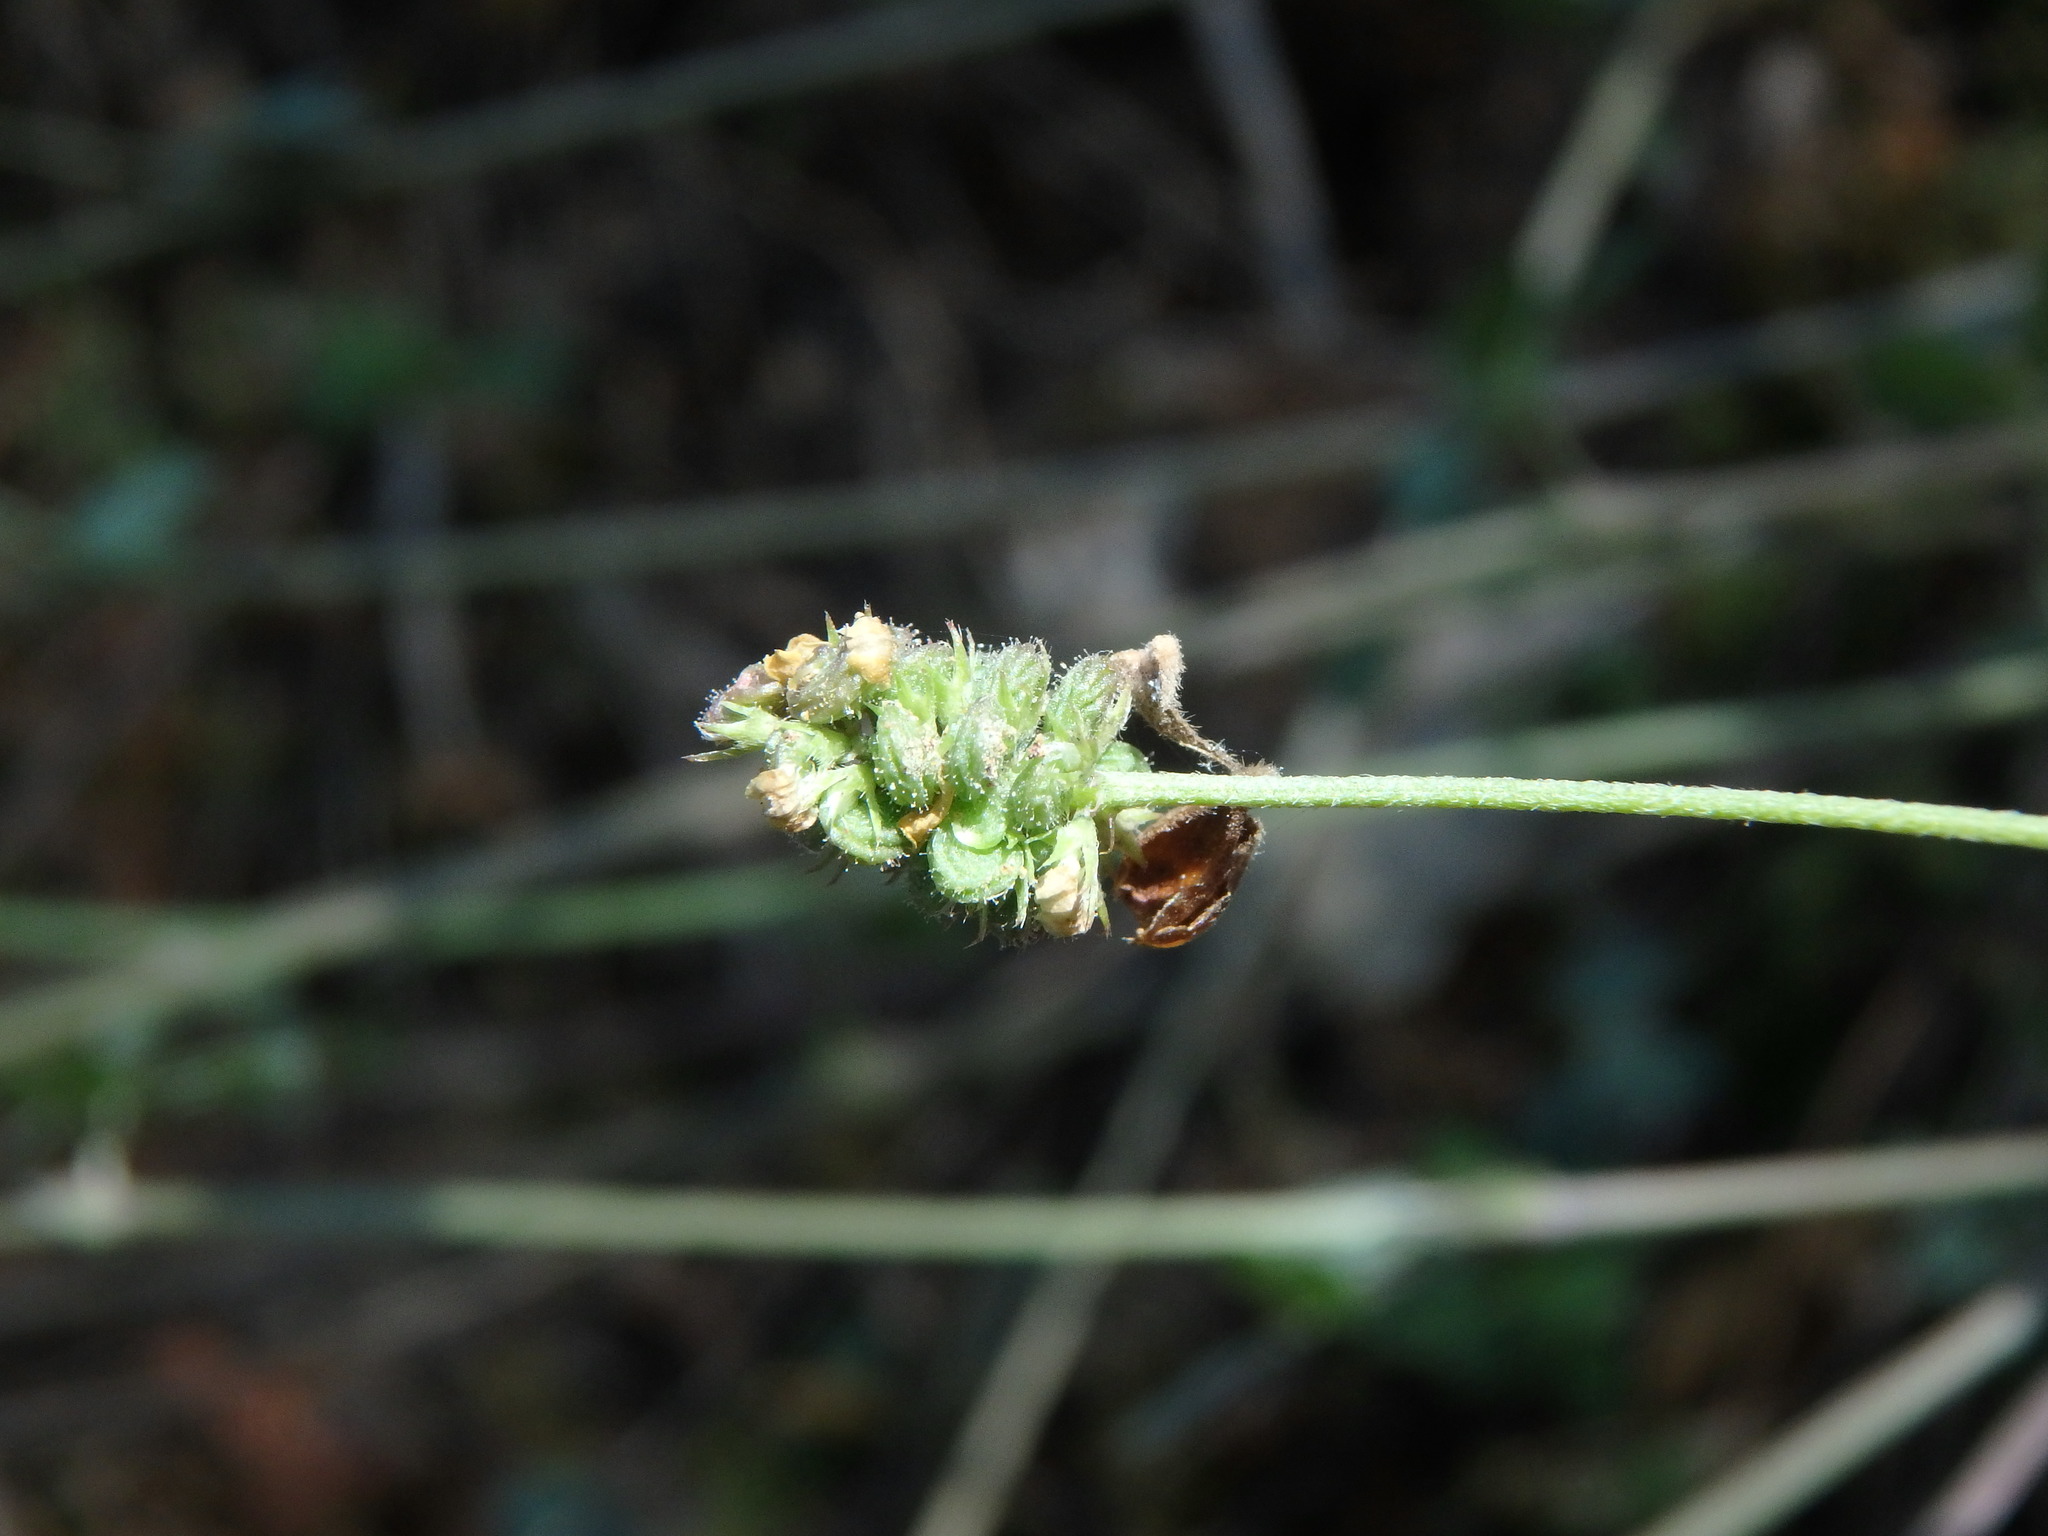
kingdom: Plantae
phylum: Tracheophyta
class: Magnoliopsida
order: Fabales
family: Fabaceae
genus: Medicago
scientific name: Medicago lupulina
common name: Black medick
